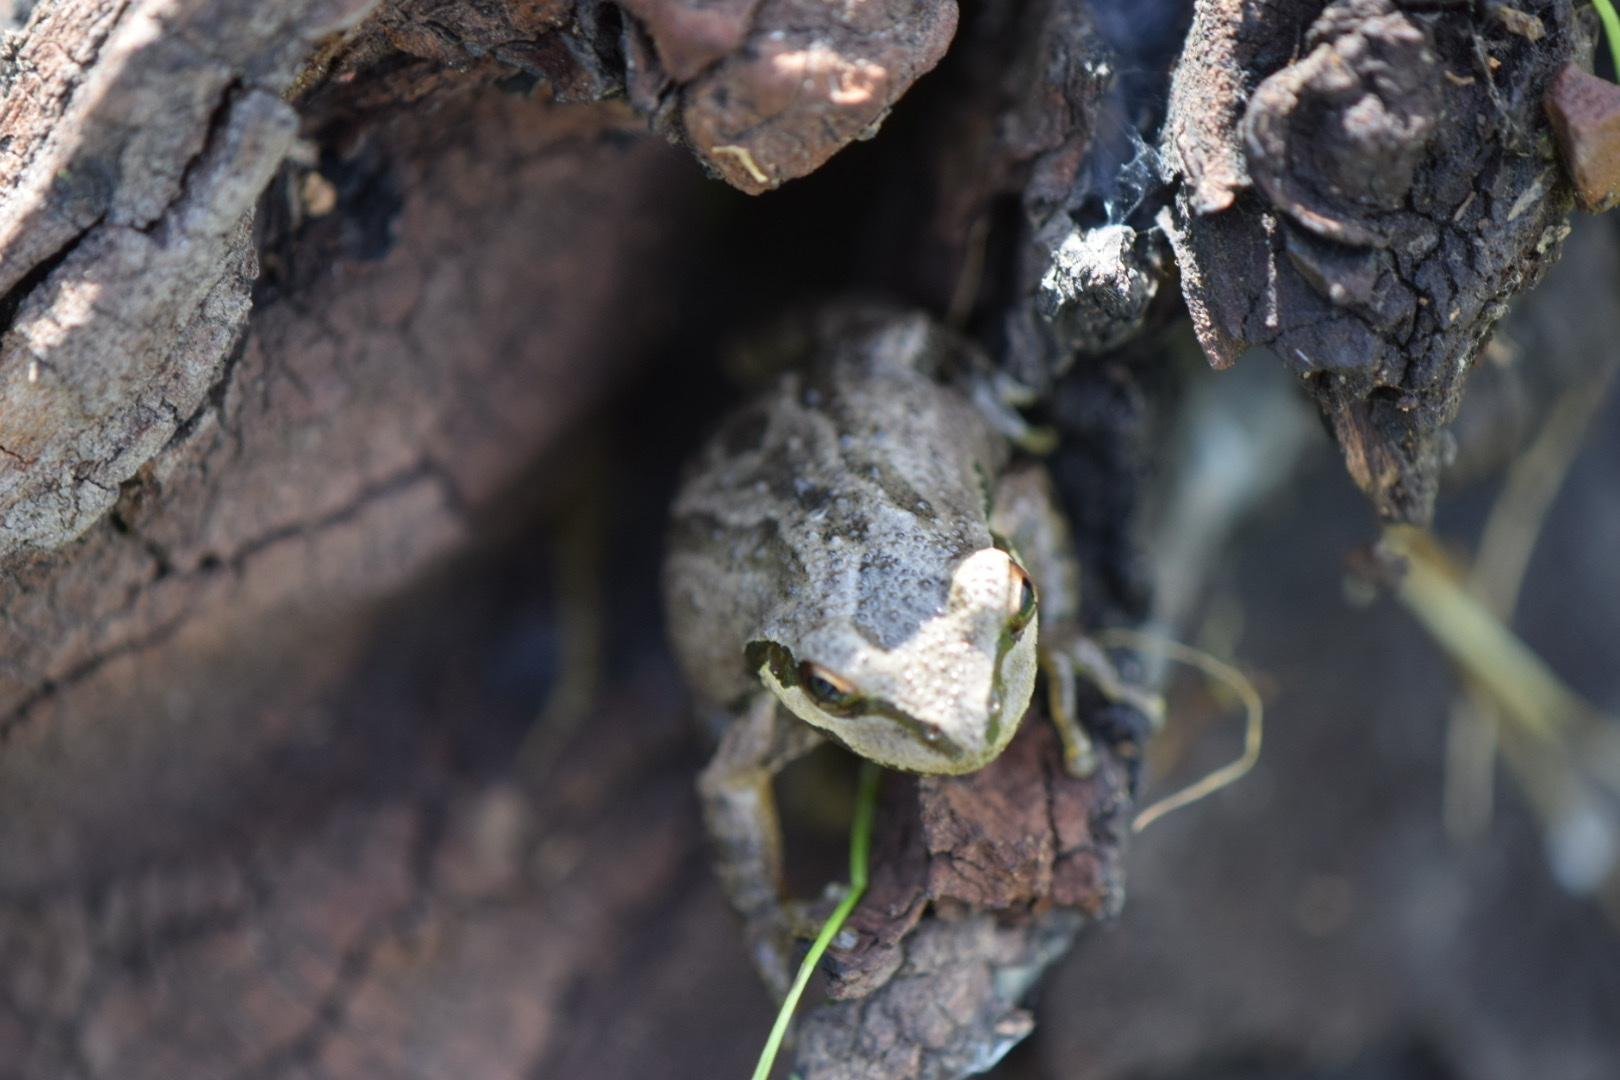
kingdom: Animalia
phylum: Chordata
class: Amphibia
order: Anura
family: Hylidae
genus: Pseudacris
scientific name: Pseudacris regilla
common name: Pacific chorus frog
